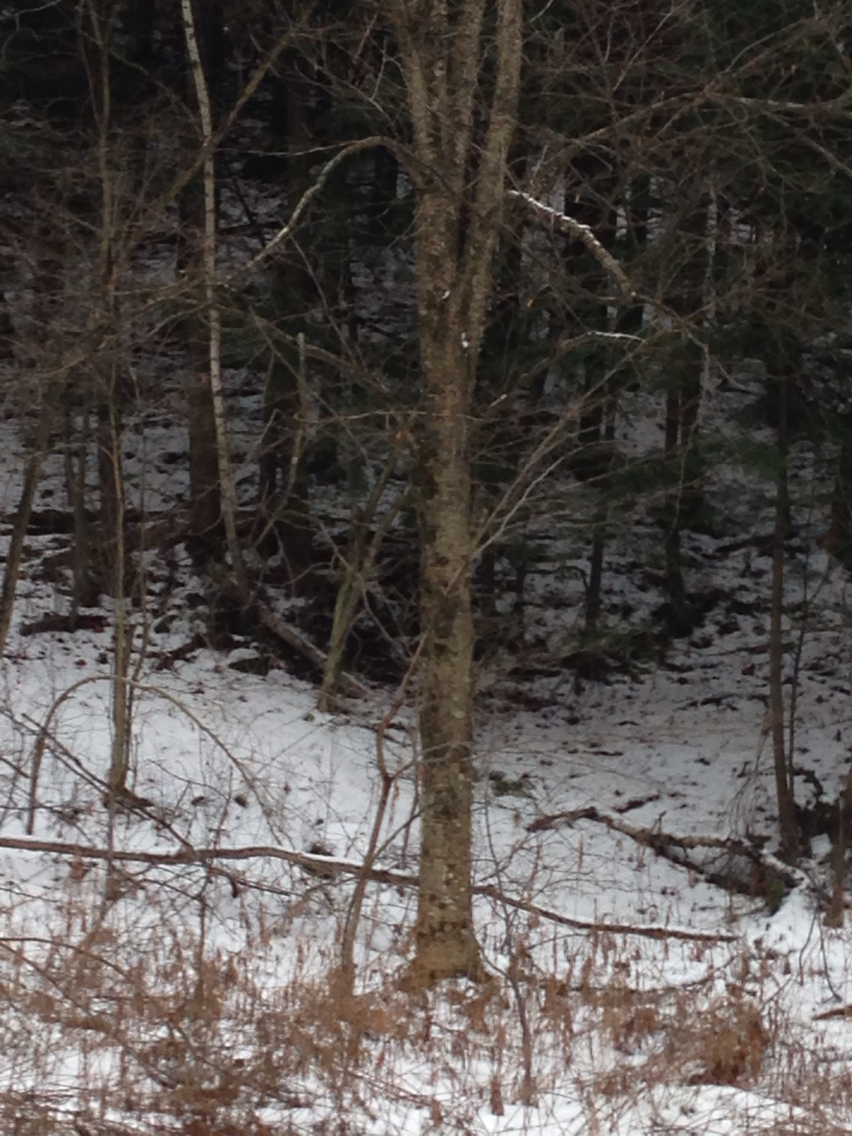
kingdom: Plantae
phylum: Tracheophyta
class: Magnoliopsida
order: Fagales
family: Betulaceae
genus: Betula
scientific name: Betula alleghaniensis
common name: Yellow birch
